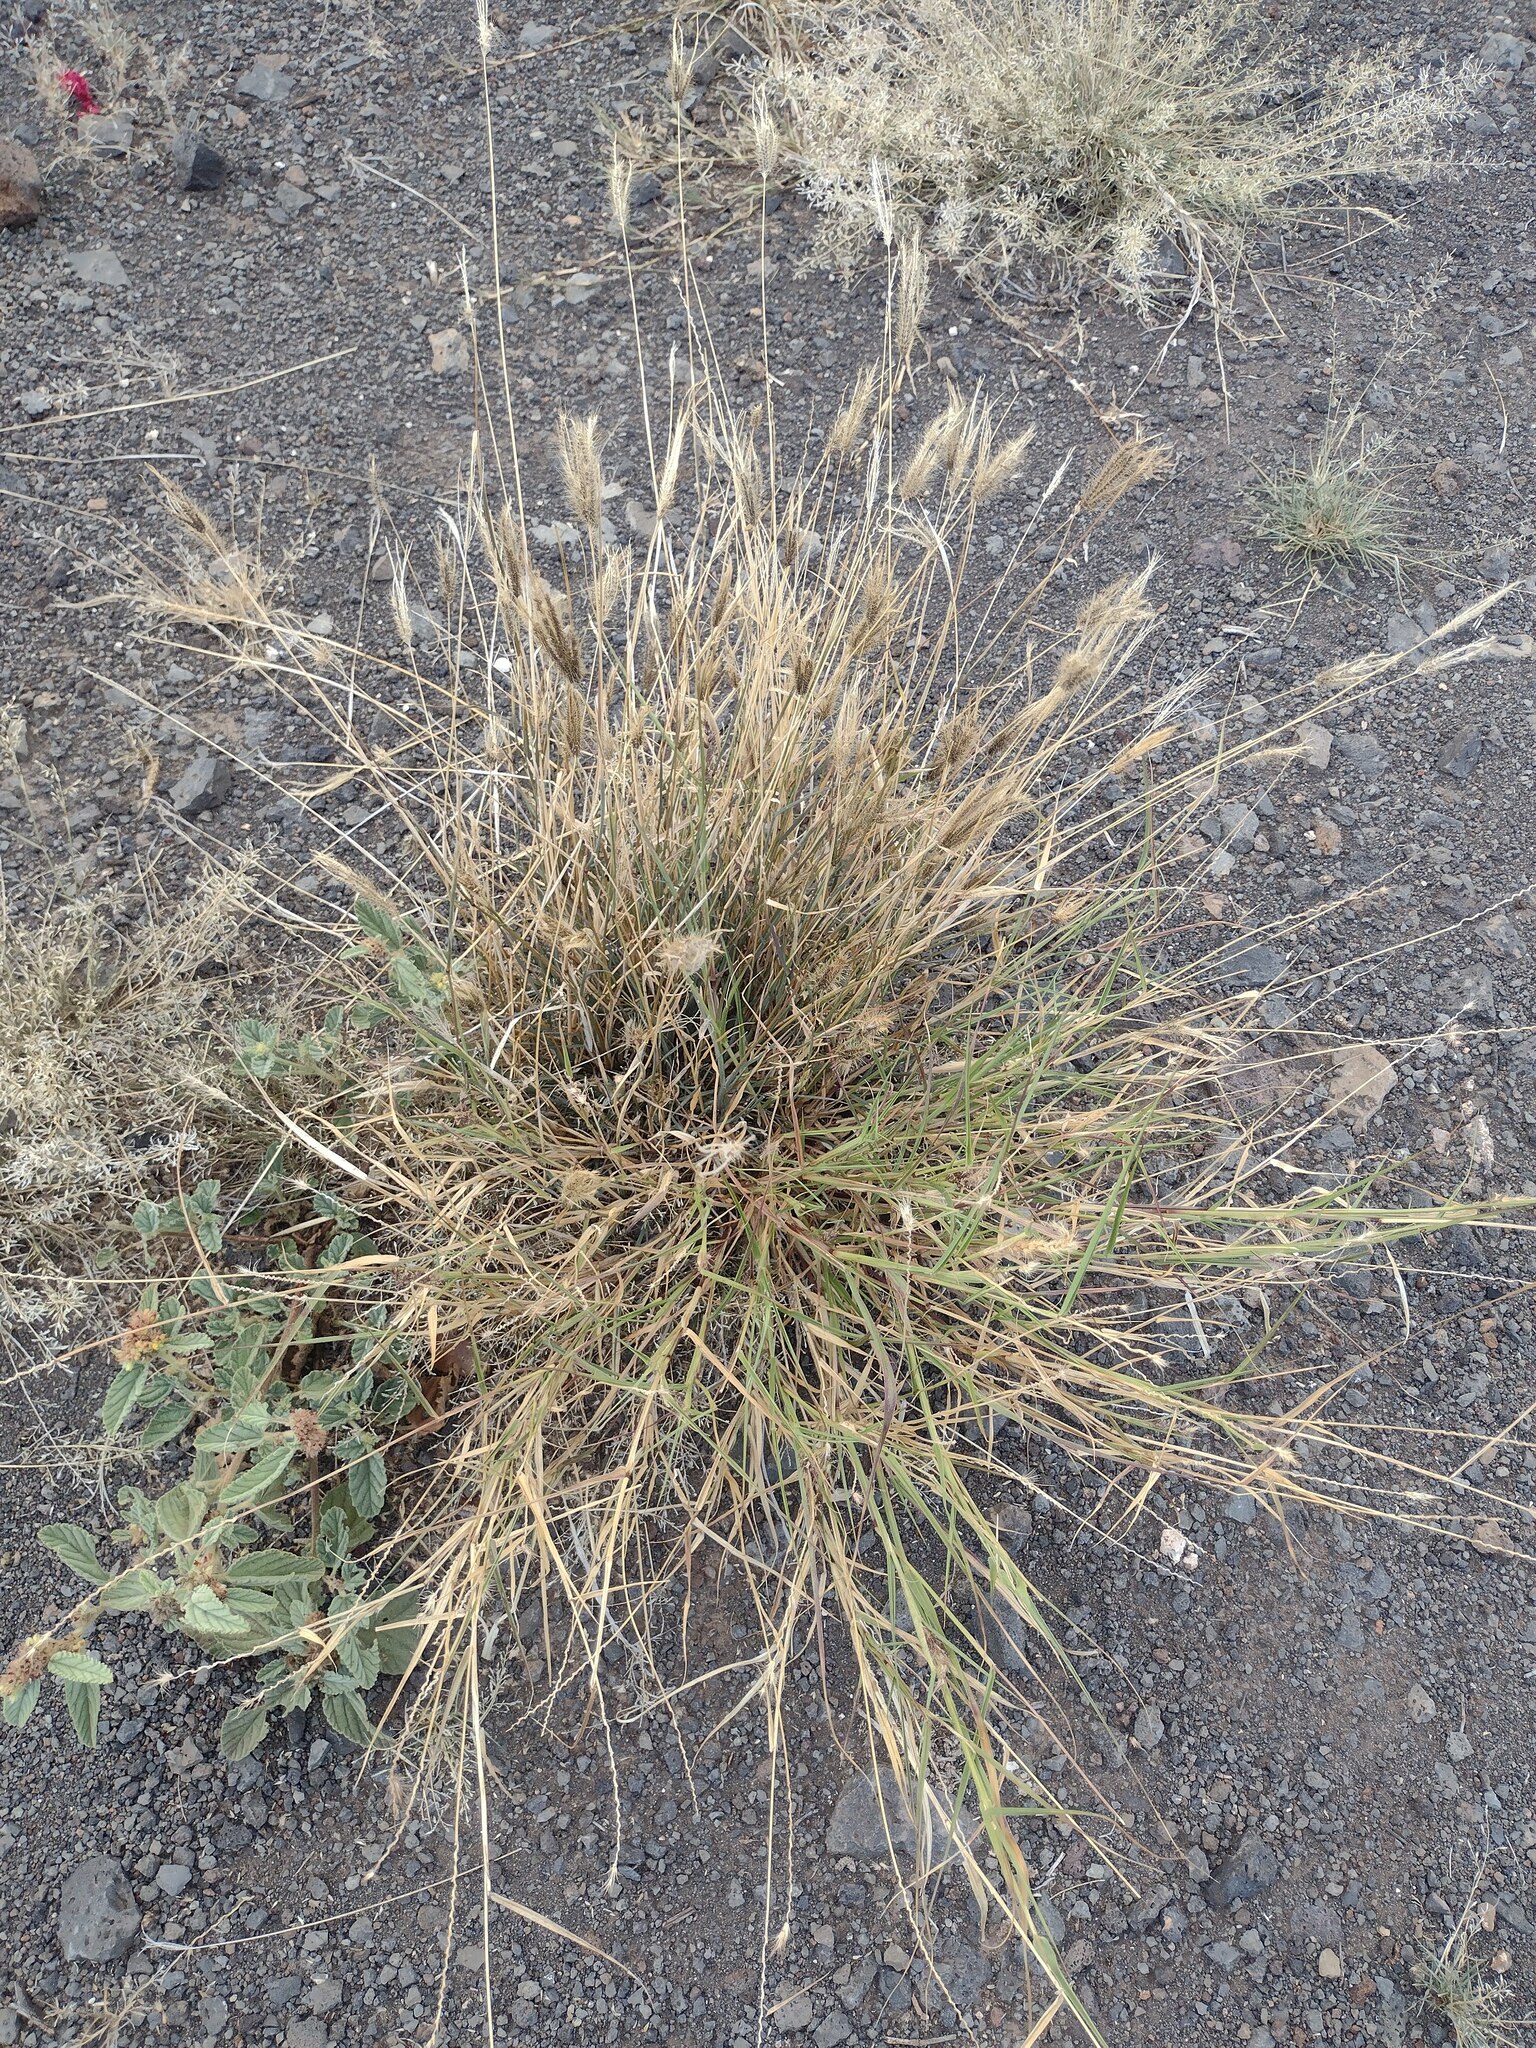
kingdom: Plantae
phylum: Tracheophyta
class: Liliopsida
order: Poales
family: Poaceae
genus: Chloris
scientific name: Chloris barbata
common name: Swollen fingergrass
